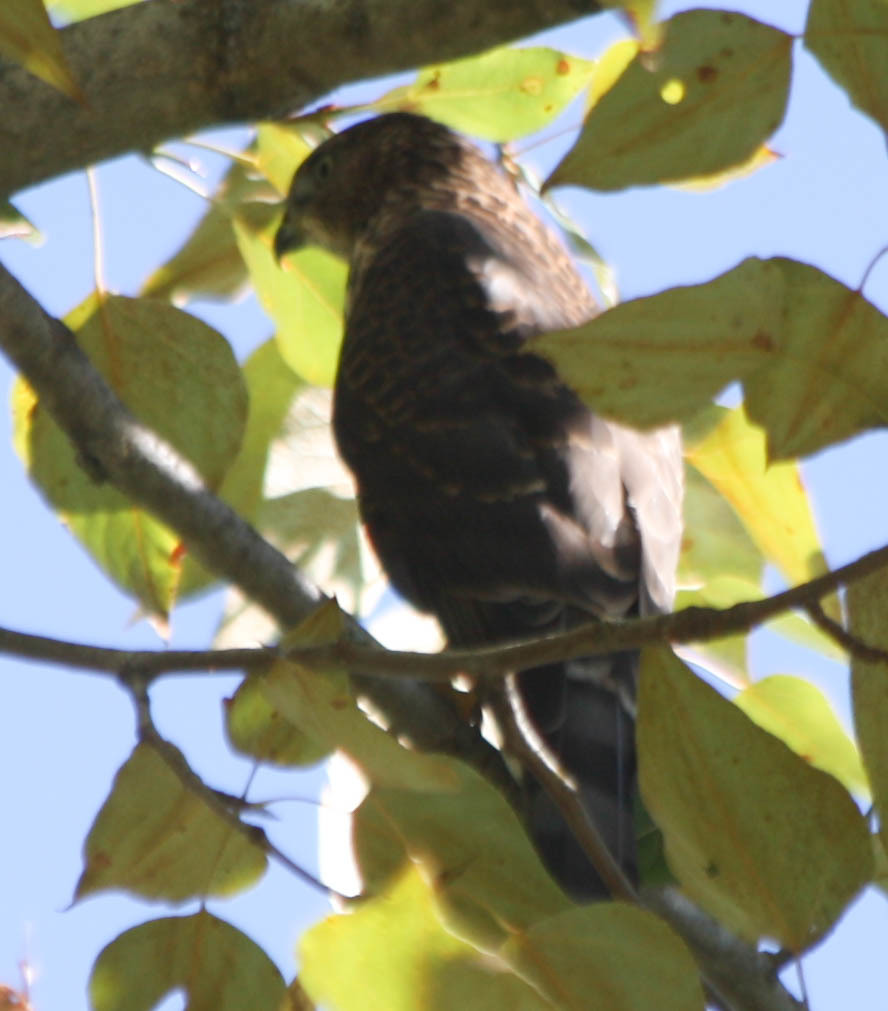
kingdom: Animalia
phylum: Chordata
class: Aves
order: Accipitriformes
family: Accipitridae
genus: Accipiter
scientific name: Accipiter
